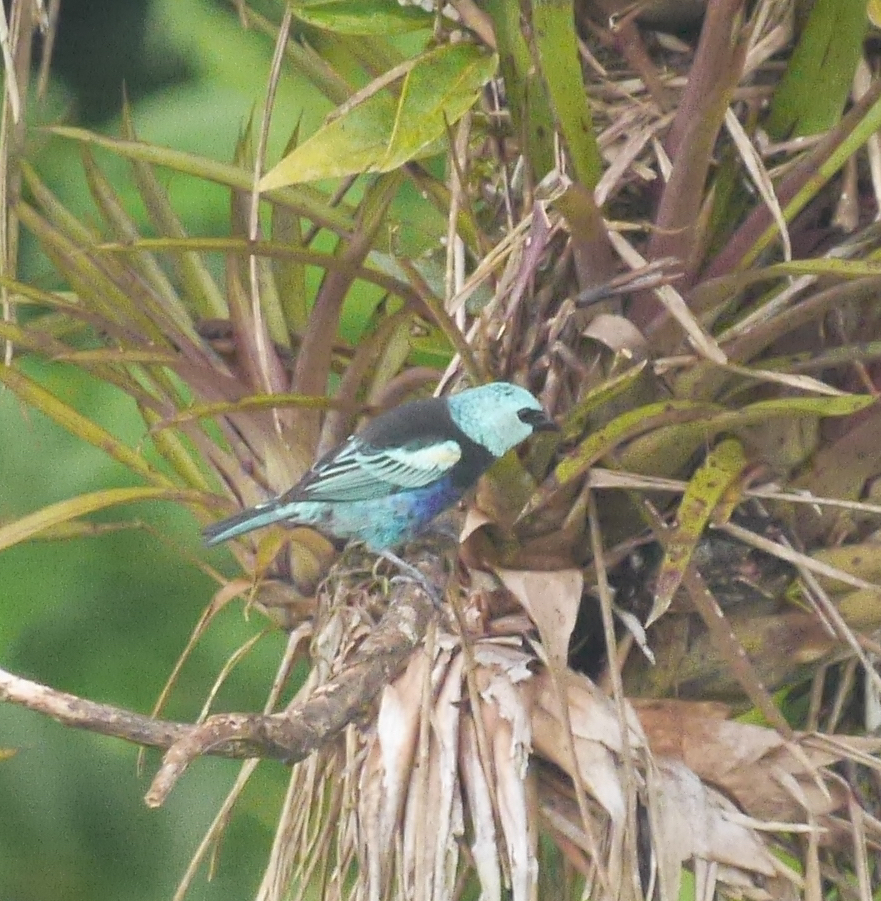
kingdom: Animalia
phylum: Chordata
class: Aves
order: Passeriformes
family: Thraupidae
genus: Stilpnia
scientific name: Stilpnia cyanicollis
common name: Blue-necked tanager
